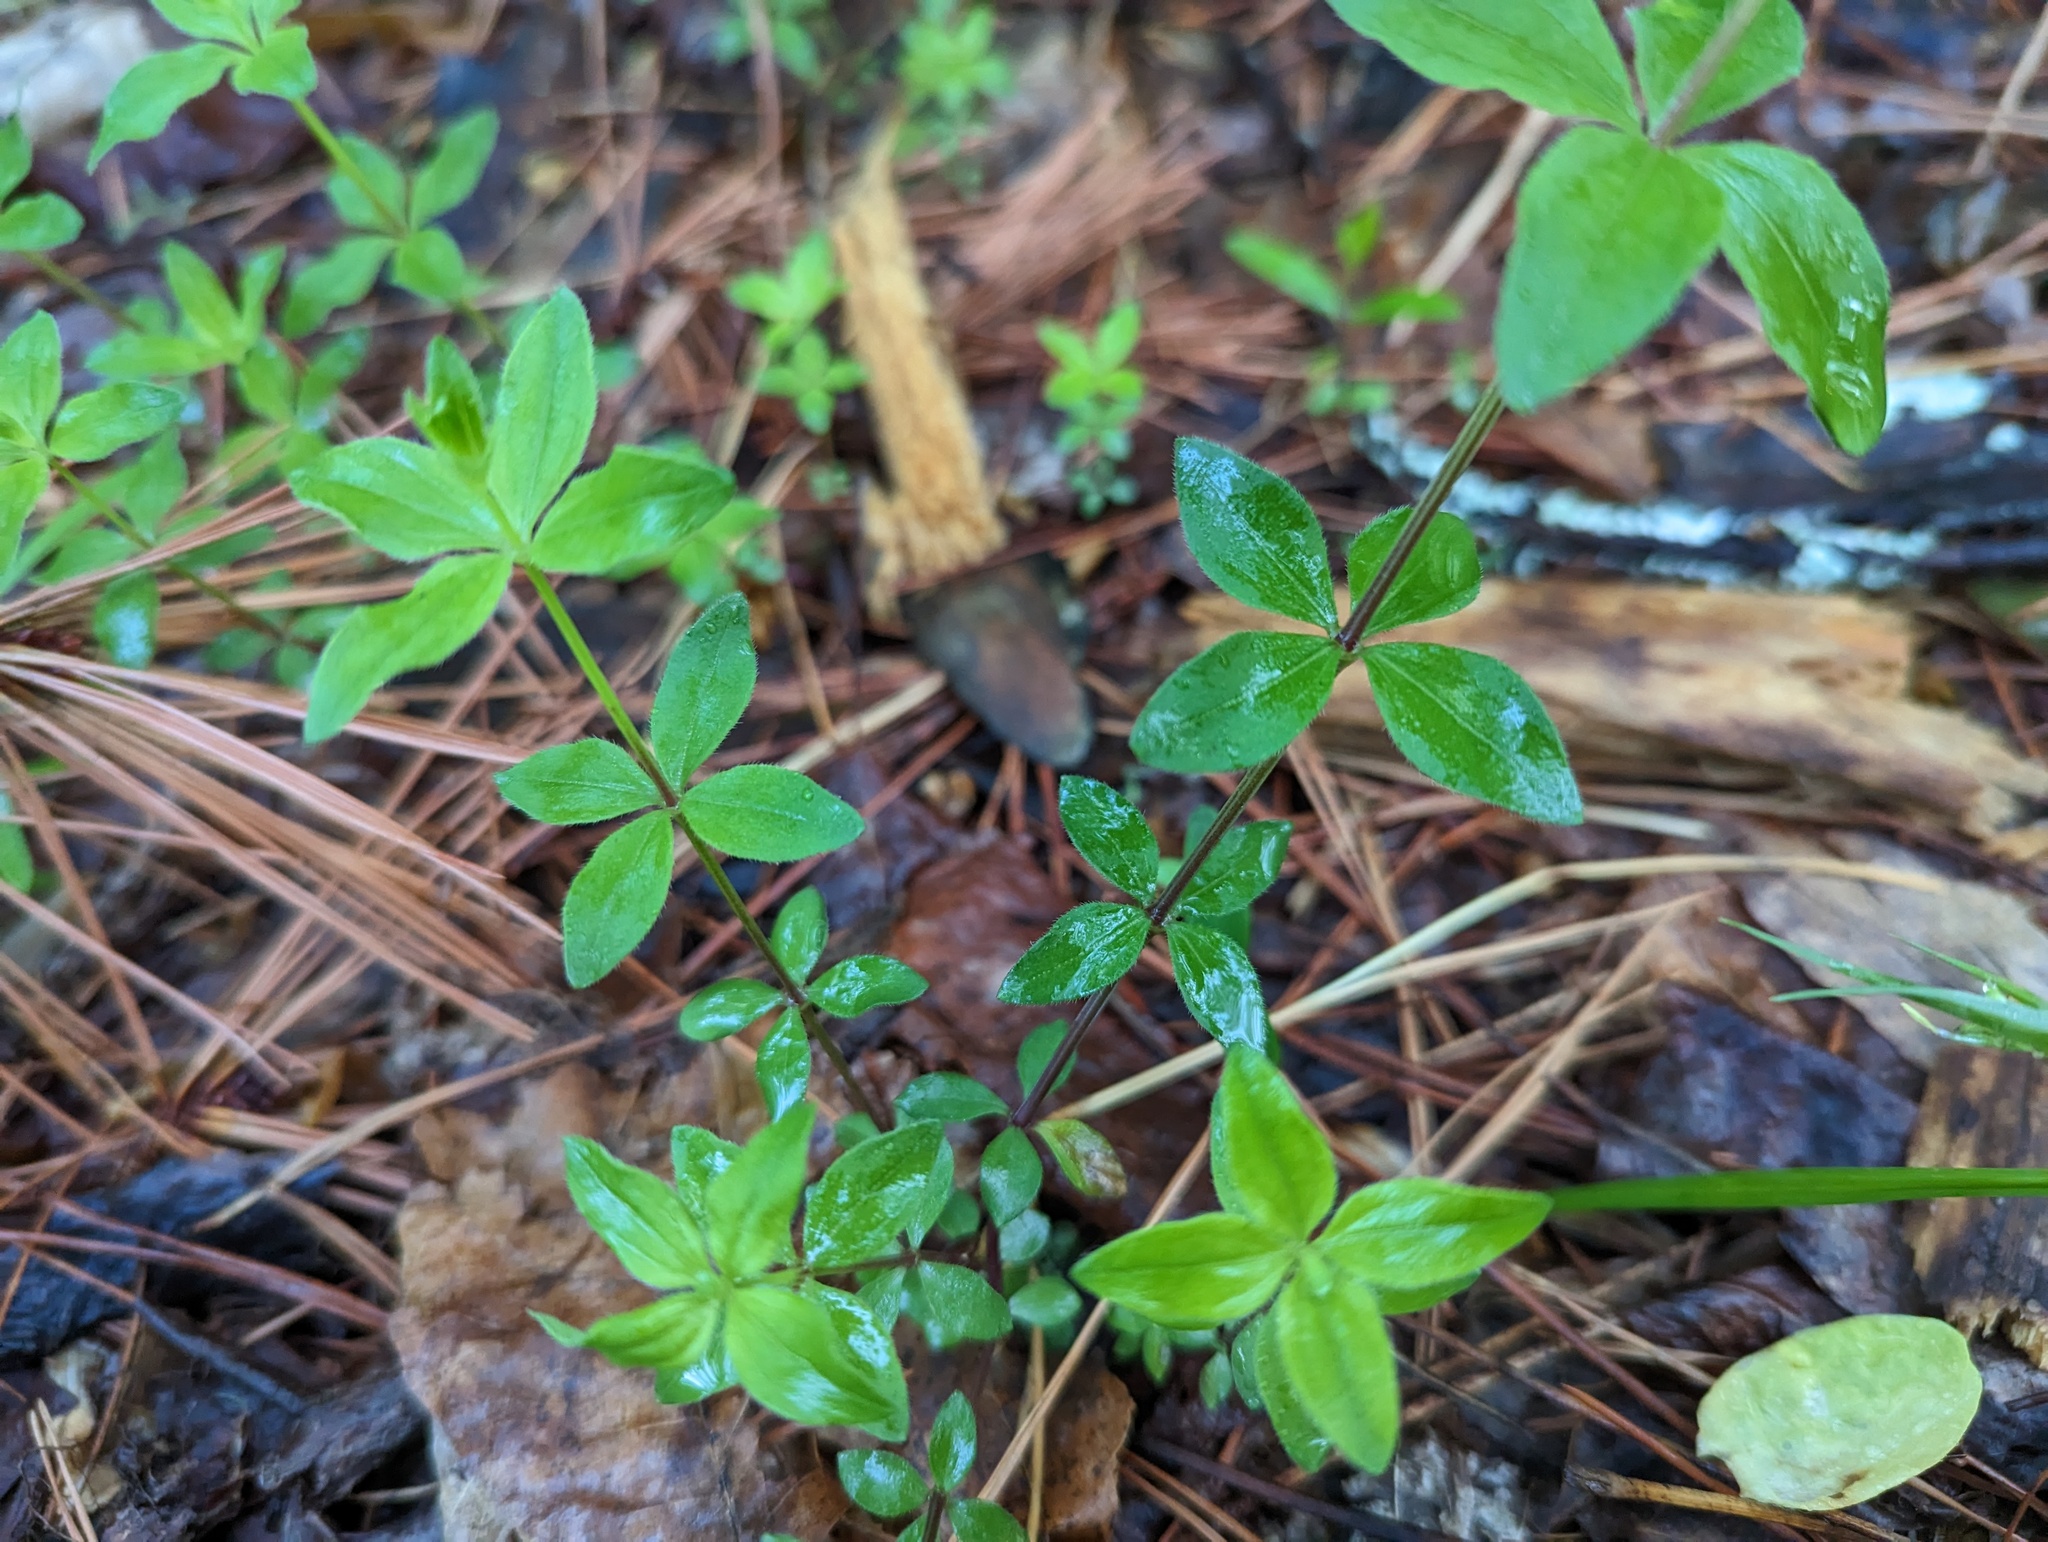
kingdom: Plantae
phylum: Tracheophyta
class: Magnoliopsida
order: Gentianales
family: Rubiaceae
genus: Galium
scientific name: Galium circaezans
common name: Forest bedstraw
